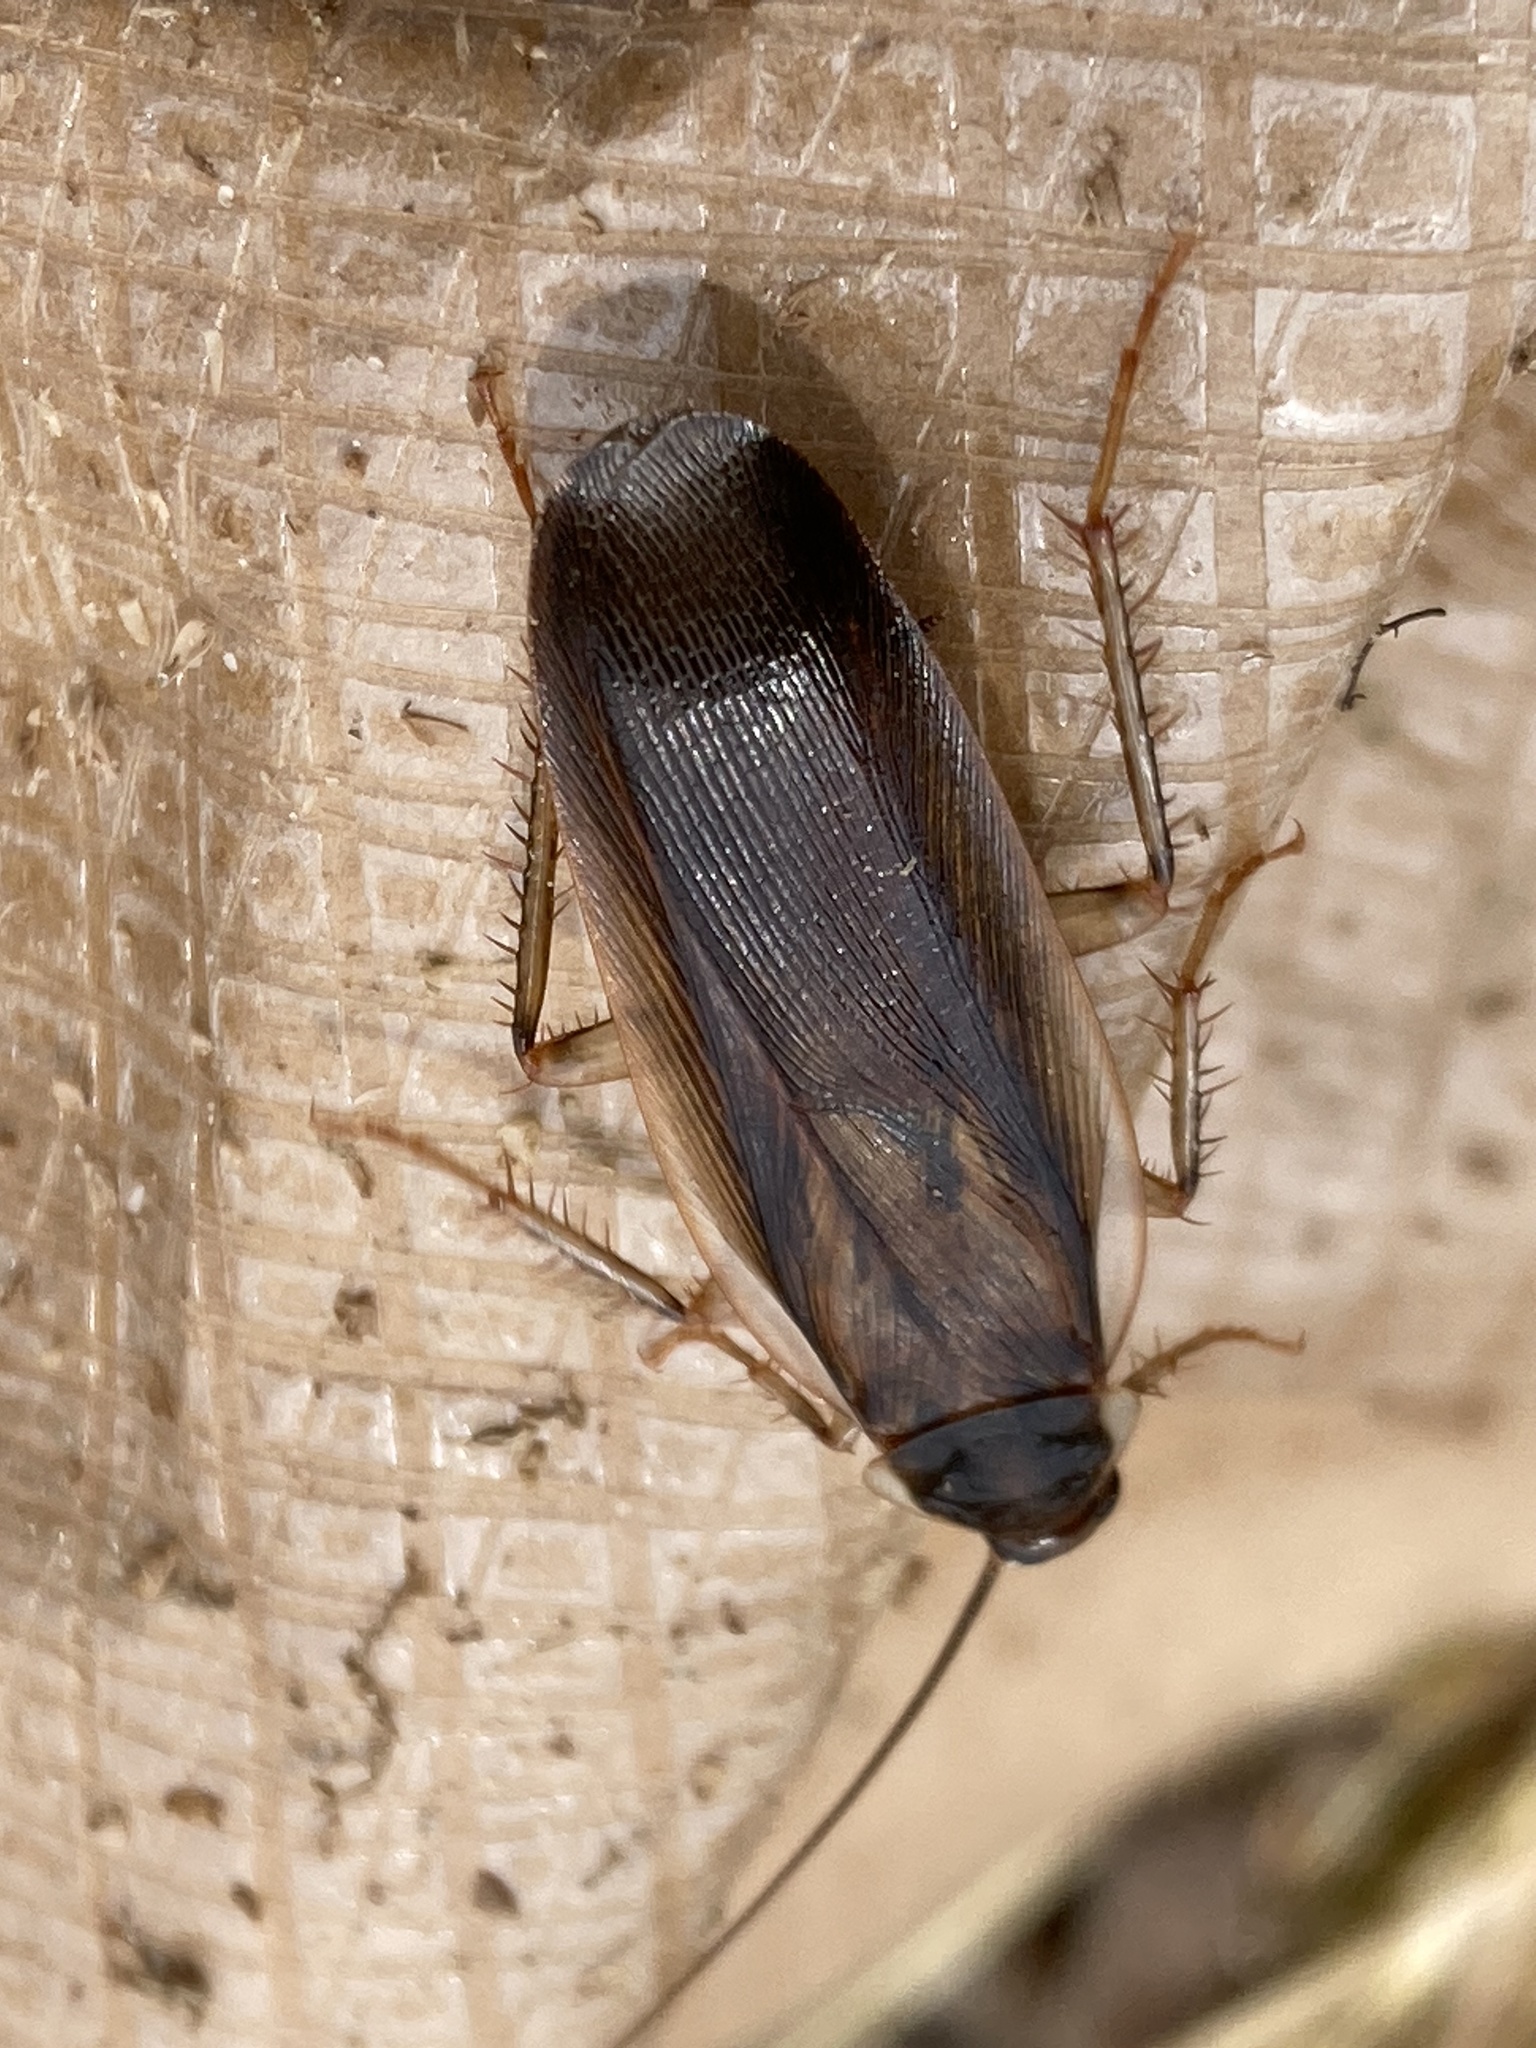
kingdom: Animalia
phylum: Arthropoda
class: Insecta
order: Blattodea
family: Ectobiidae
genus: Parcoblatta
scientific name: Parcoblatta pennsylvanica
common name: Pennsylvanian wood cockroach
